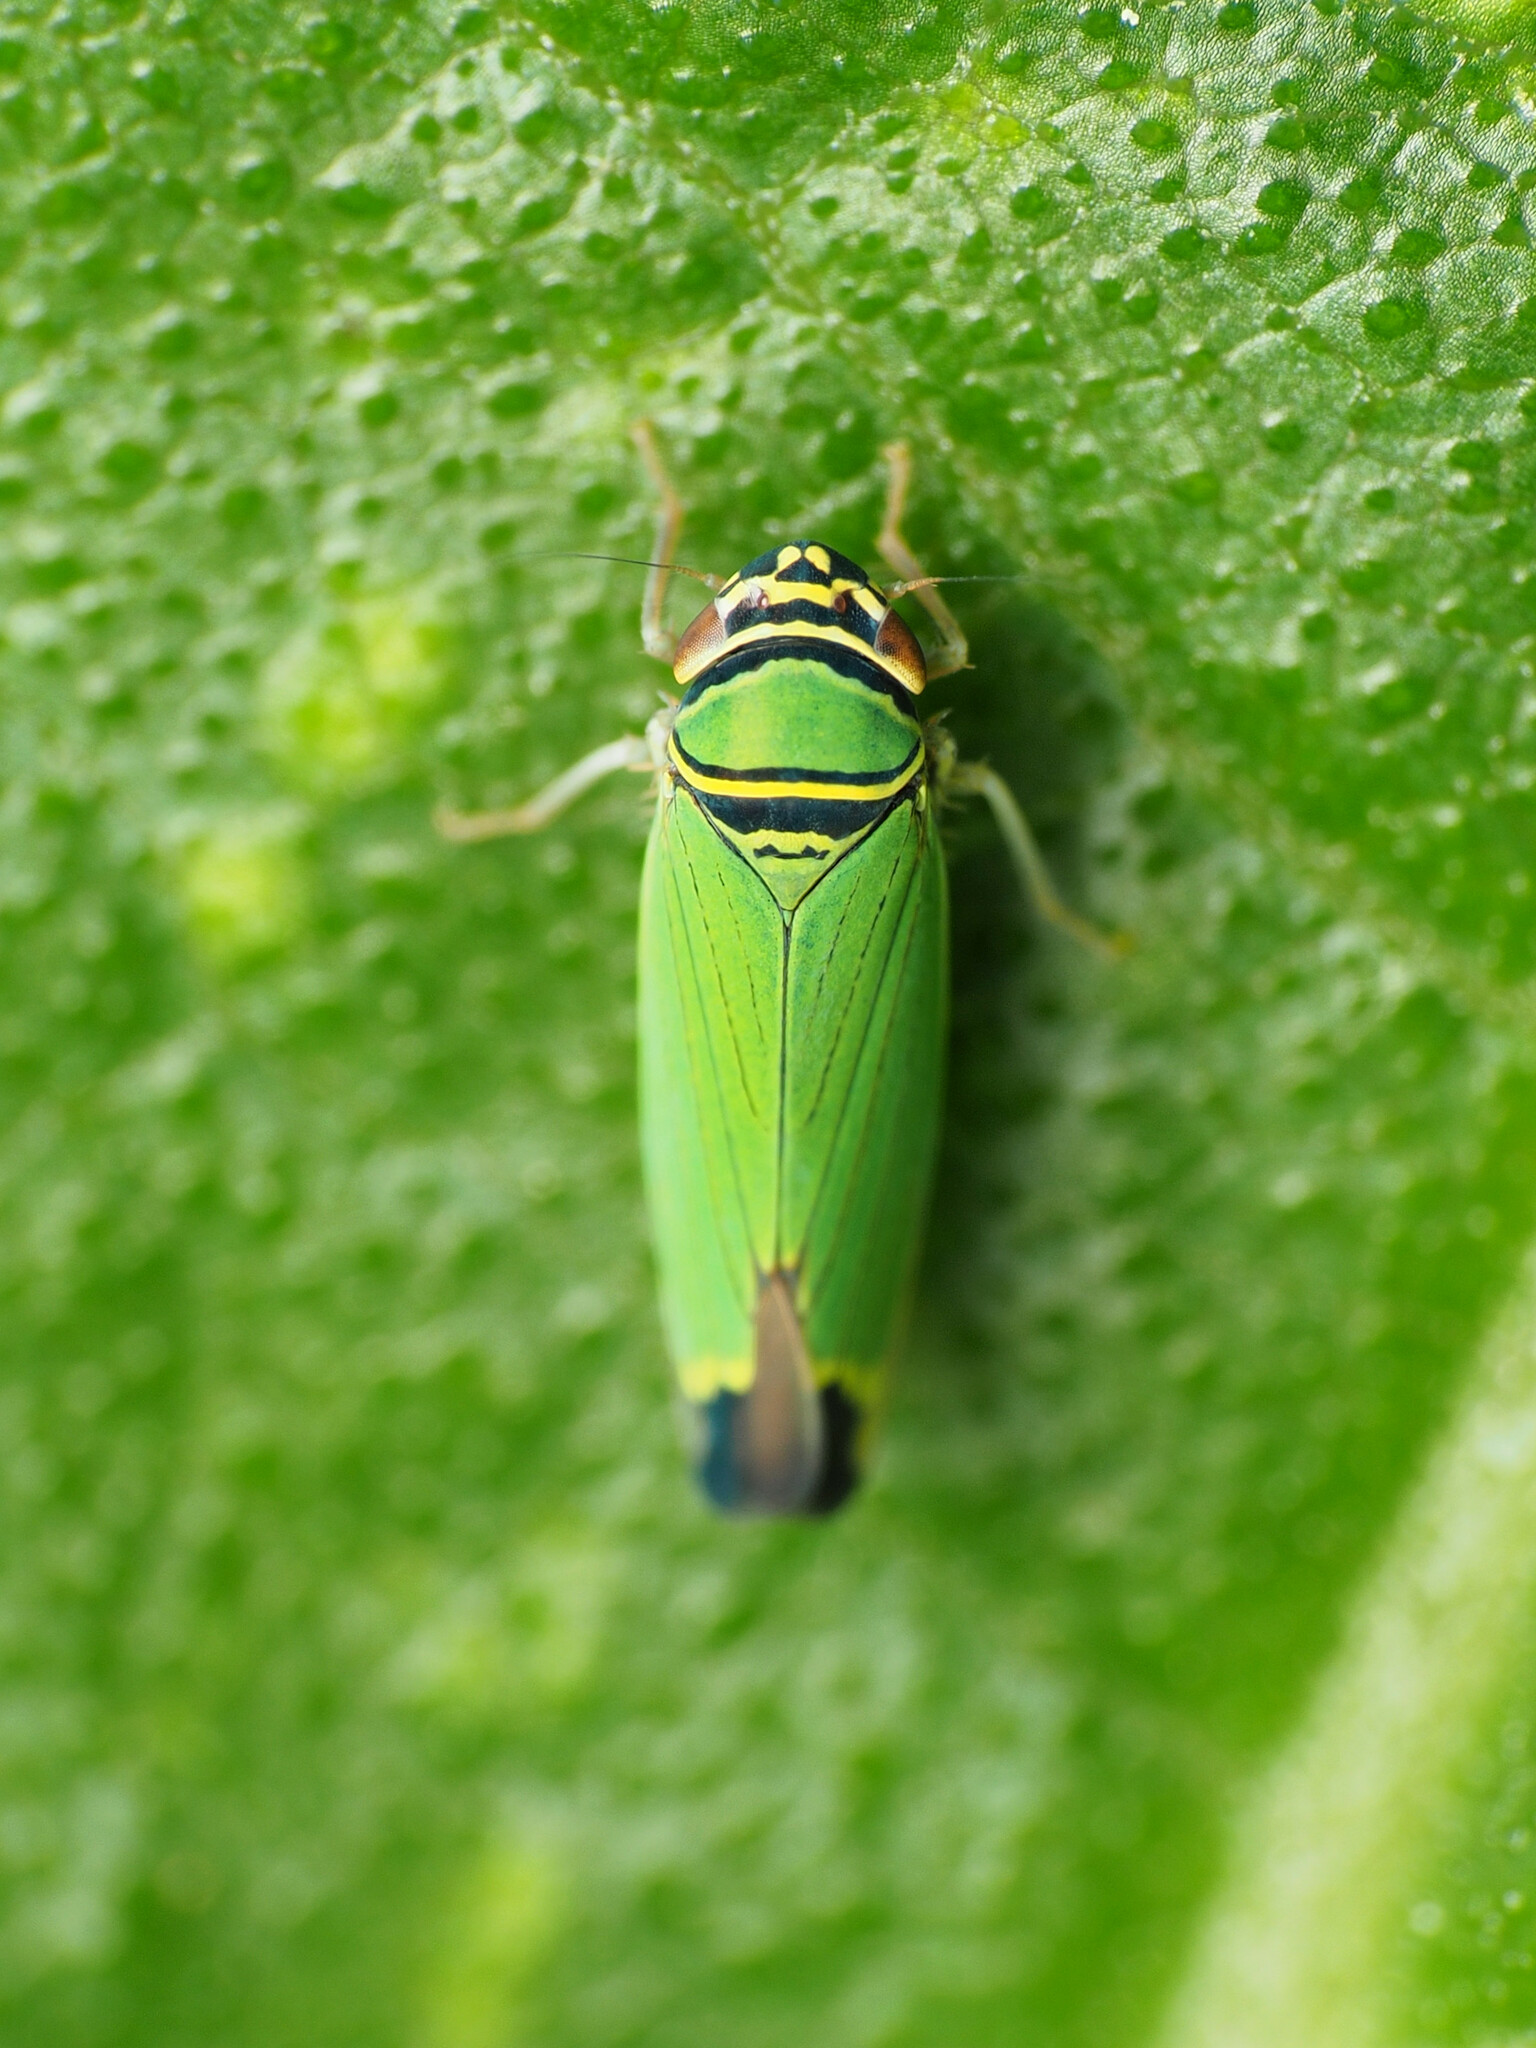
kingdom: Animalia
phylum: Arthropoda
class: Insecta
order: Hemiptera
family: Cicadellidae
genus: Tylozygus
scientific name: Tylozygus geometricus
